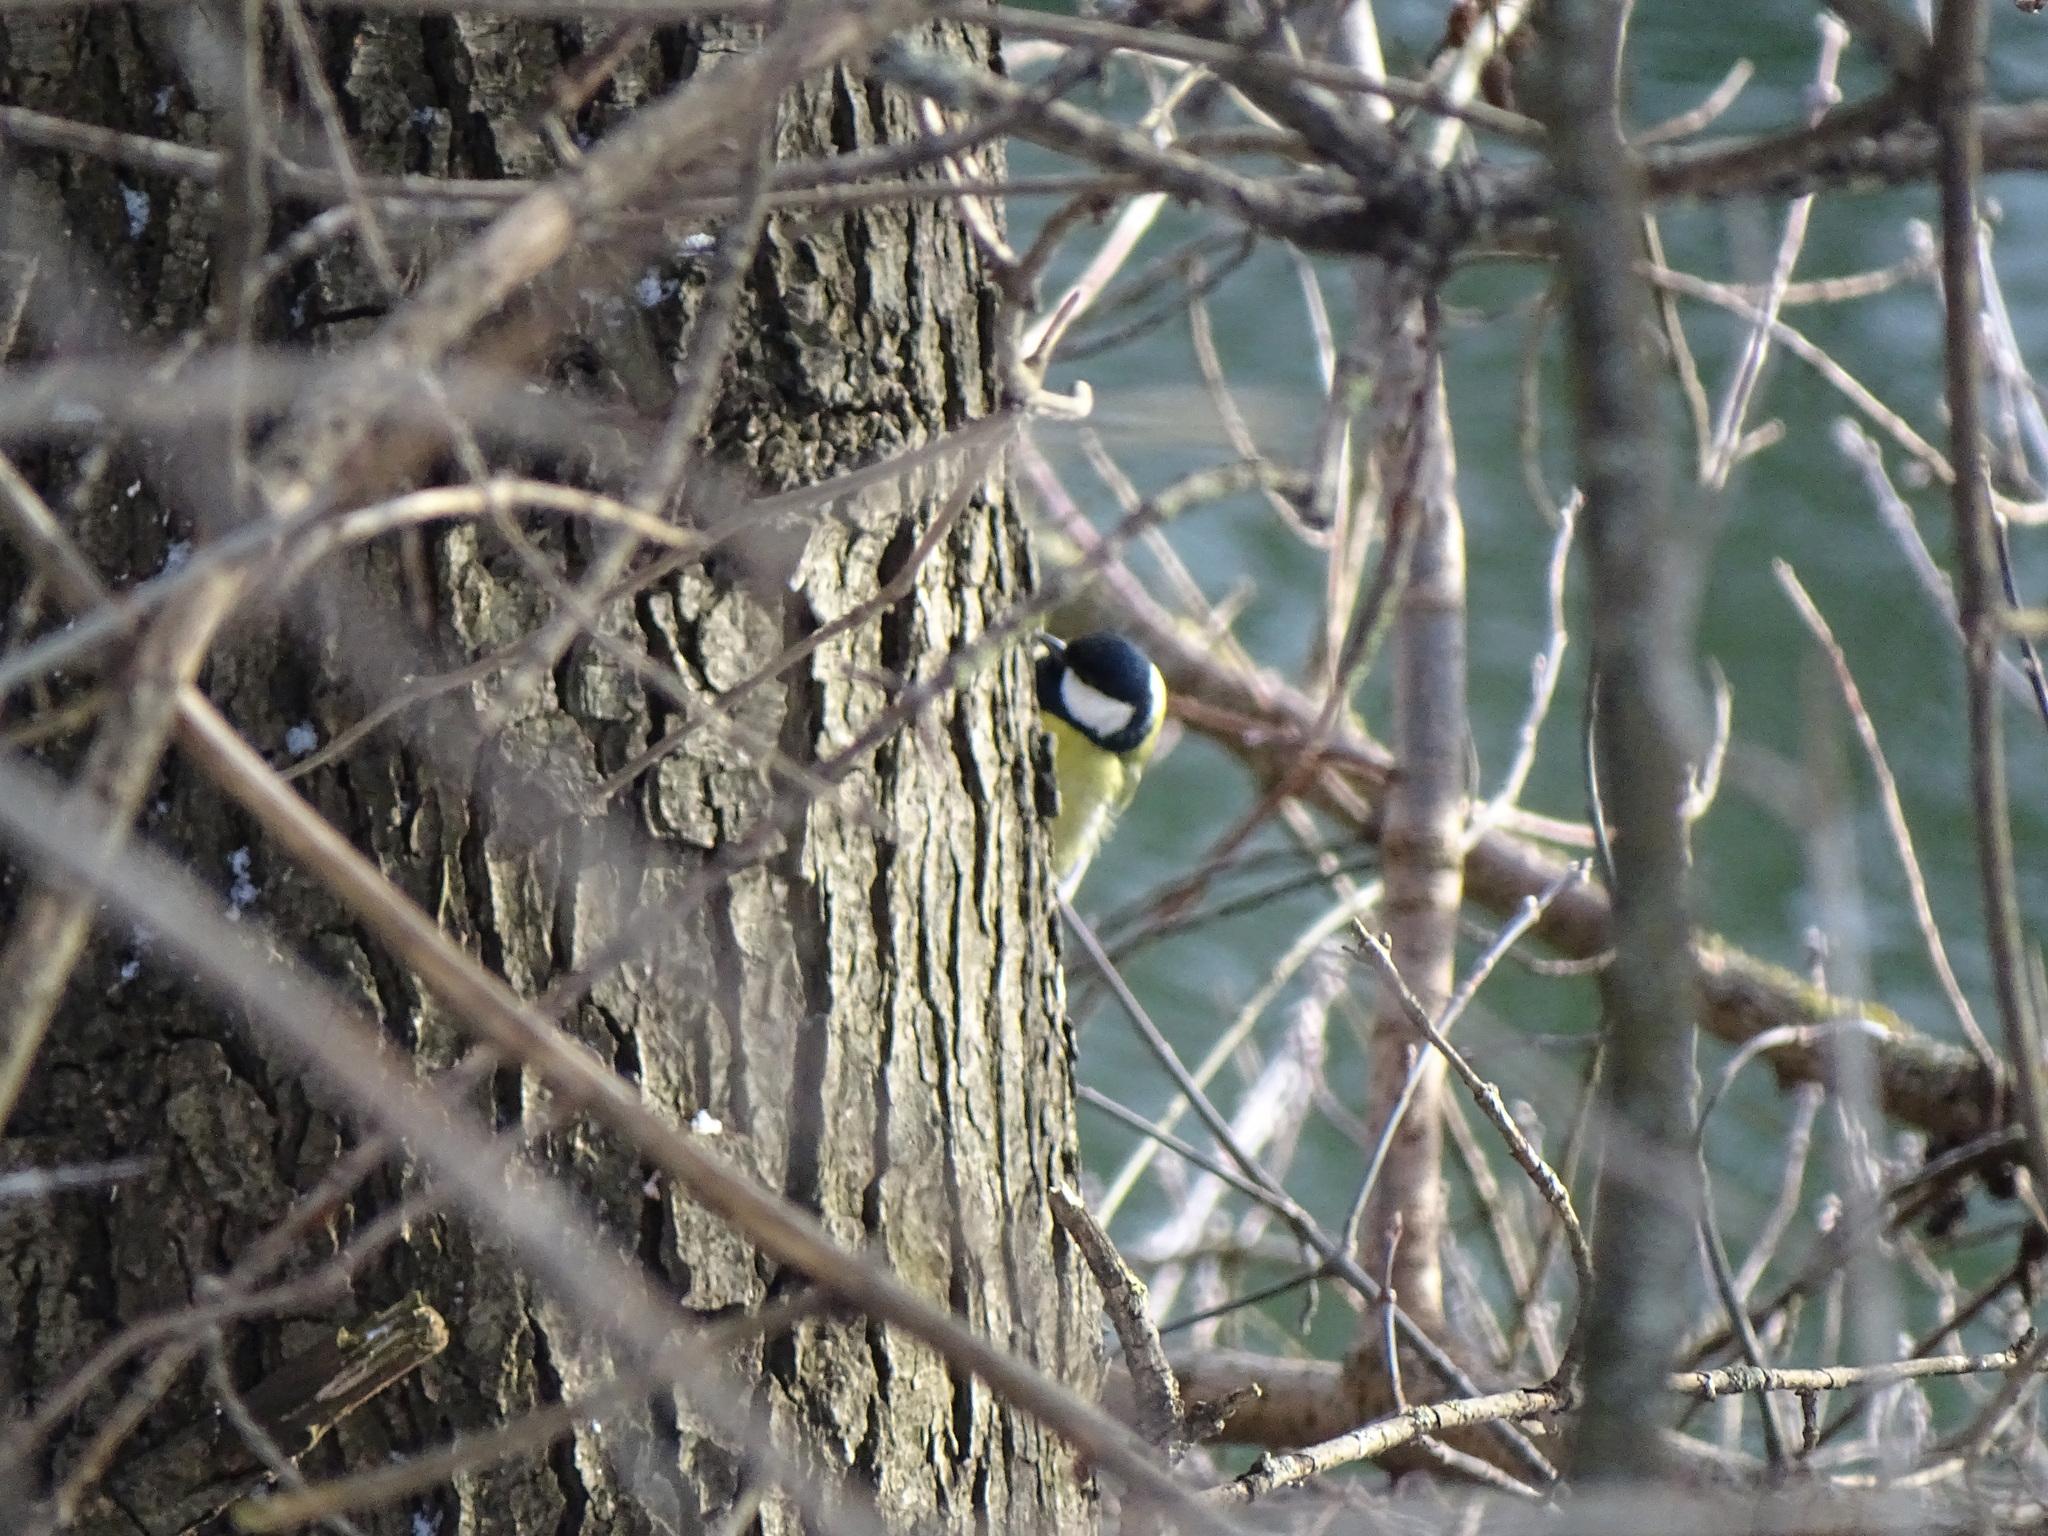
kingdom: Animalia
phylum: Chordata
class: Aves
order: Passeriformes
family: Paridae
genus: Parus
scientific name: Parus major
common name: Great tit
